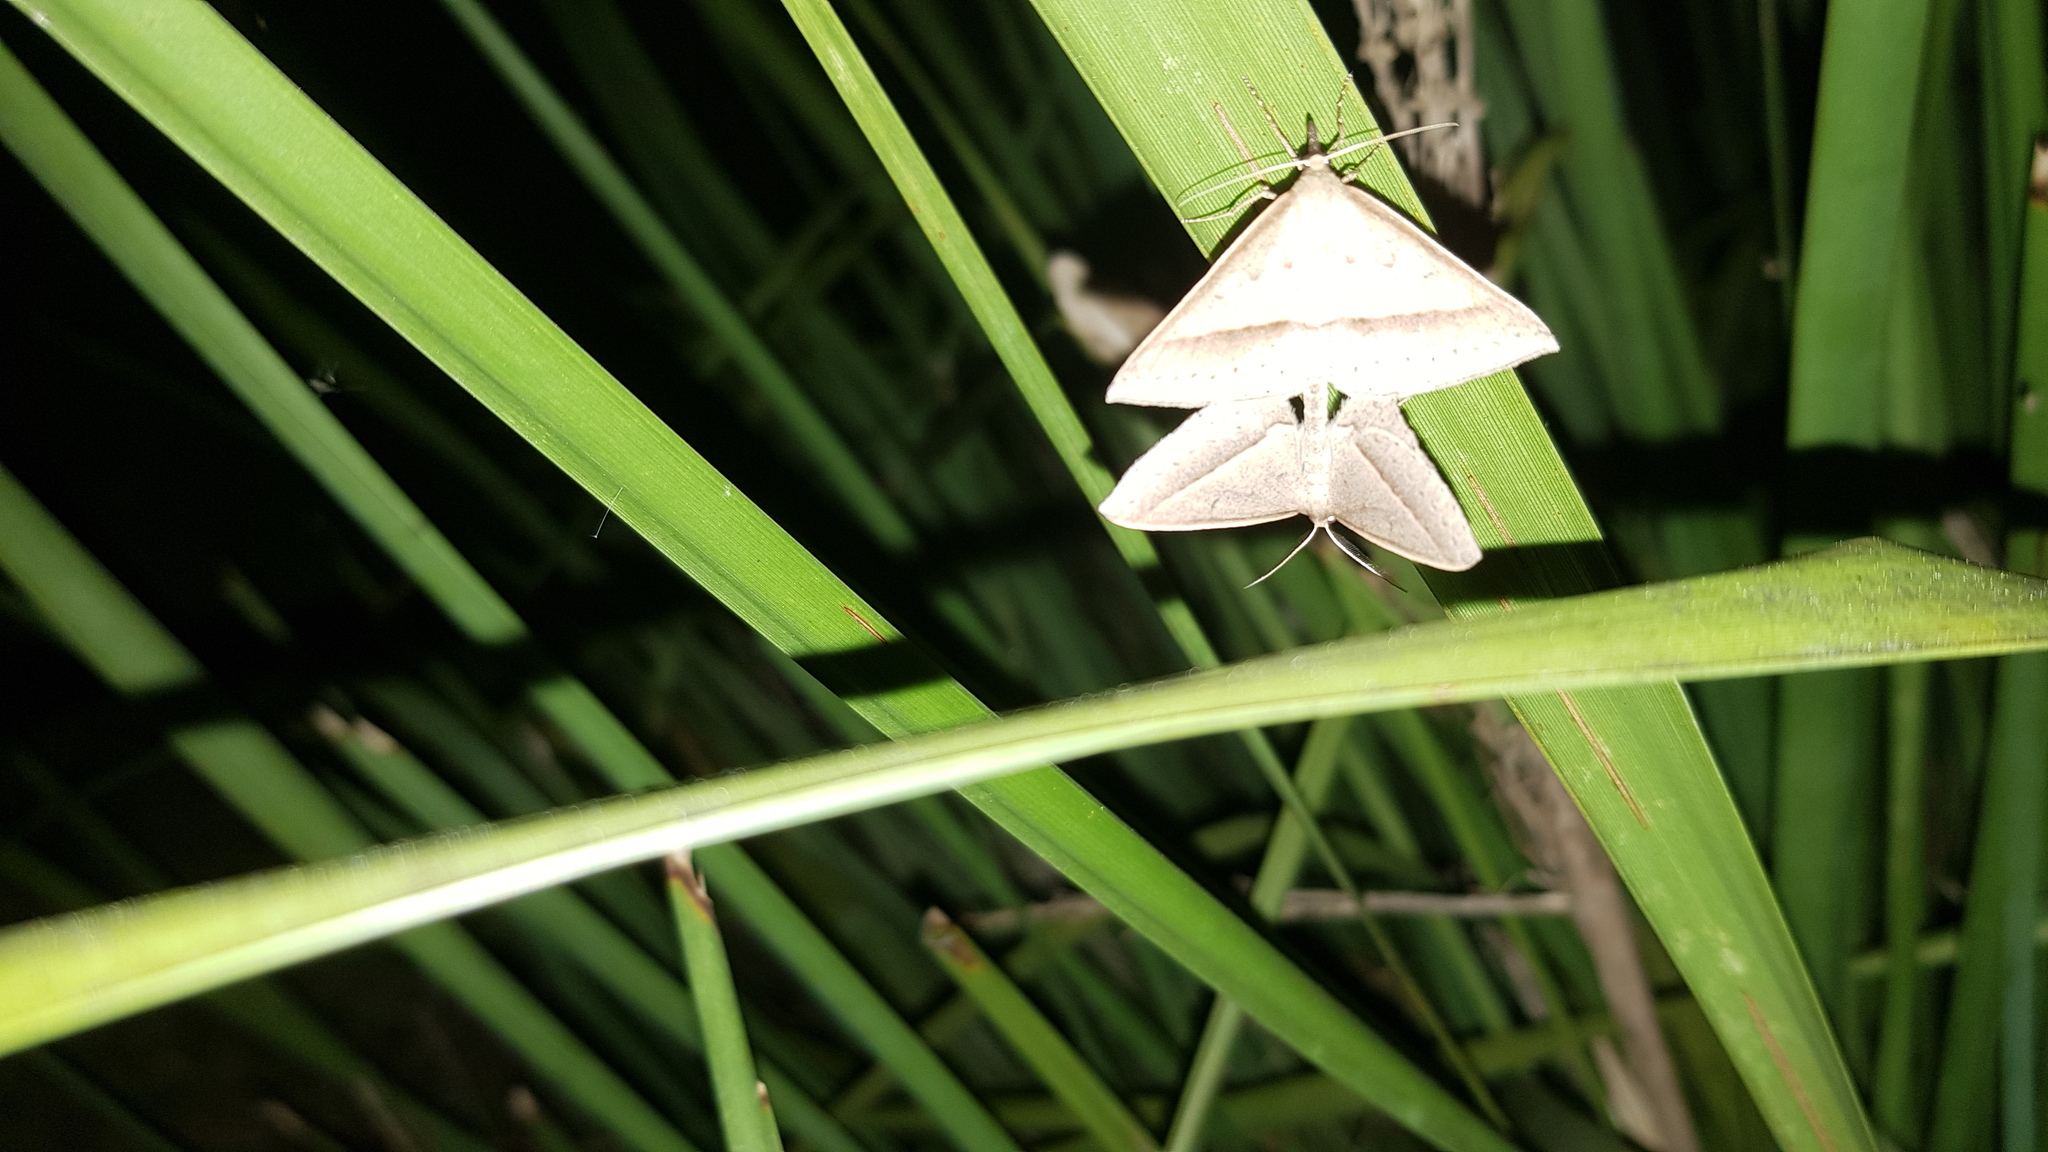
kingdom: Animalia
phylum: Arthropoda
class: Insecta
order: Lepidoptera
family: Geometridae
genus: Epidesmia
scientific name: Epidesmia tryxaria
